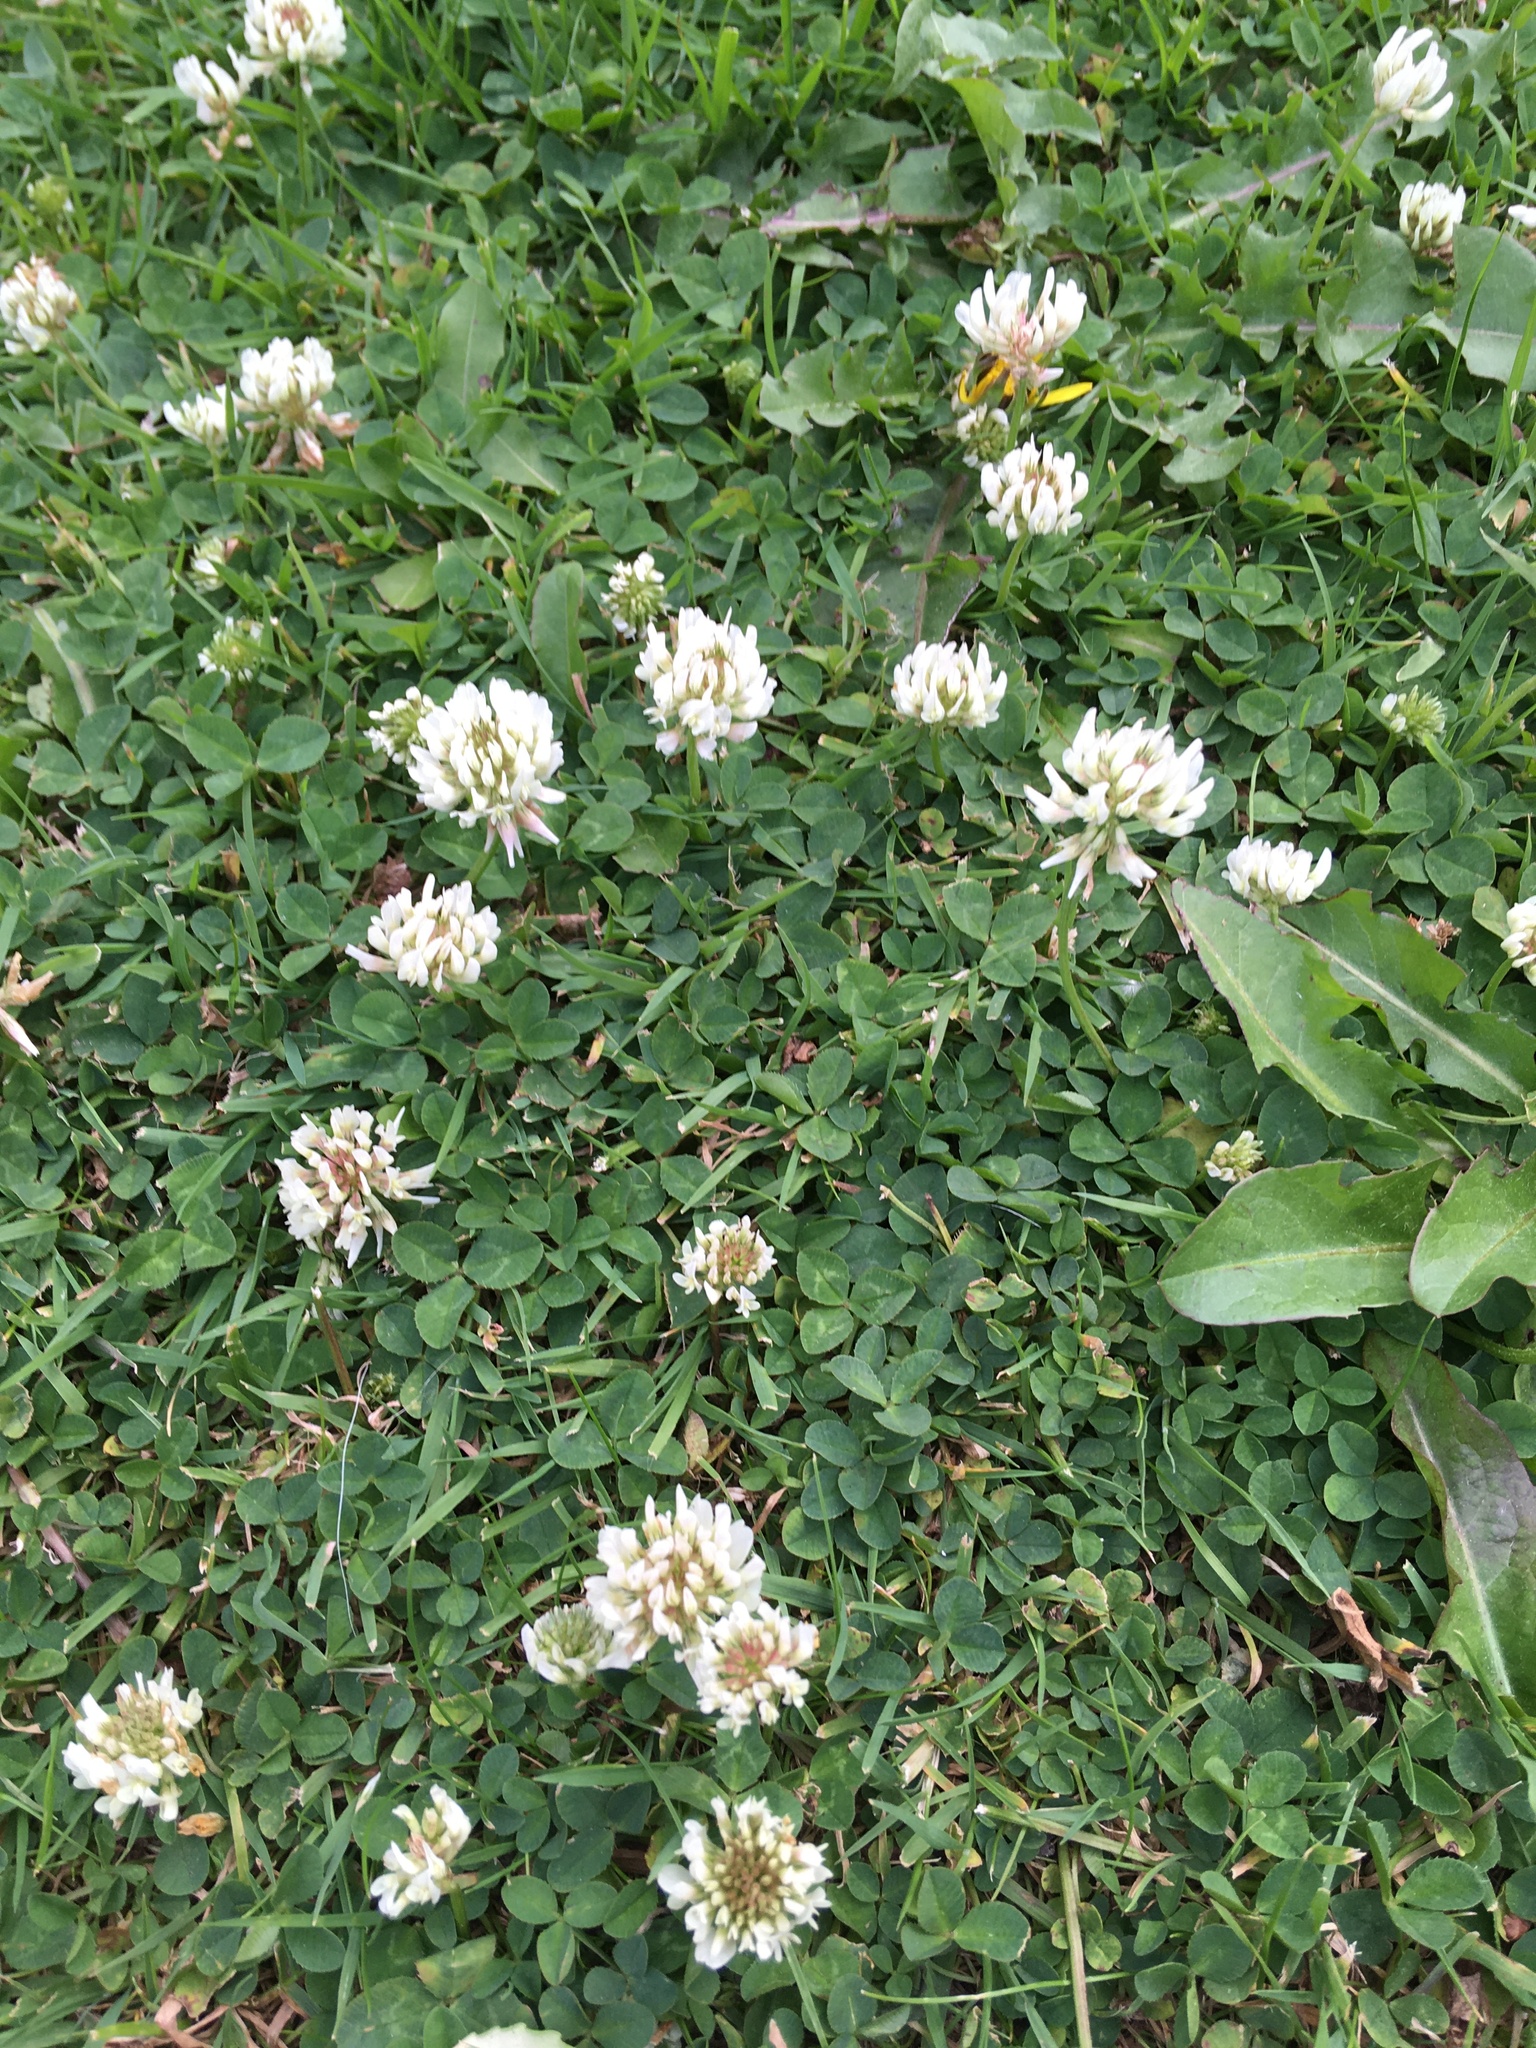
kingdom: Plantae
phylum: Tracheophyta
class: Magnoliopsida
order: Fabales
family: Fabaceae
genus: Trifolium
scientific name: Trifolium repens
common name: White clover
